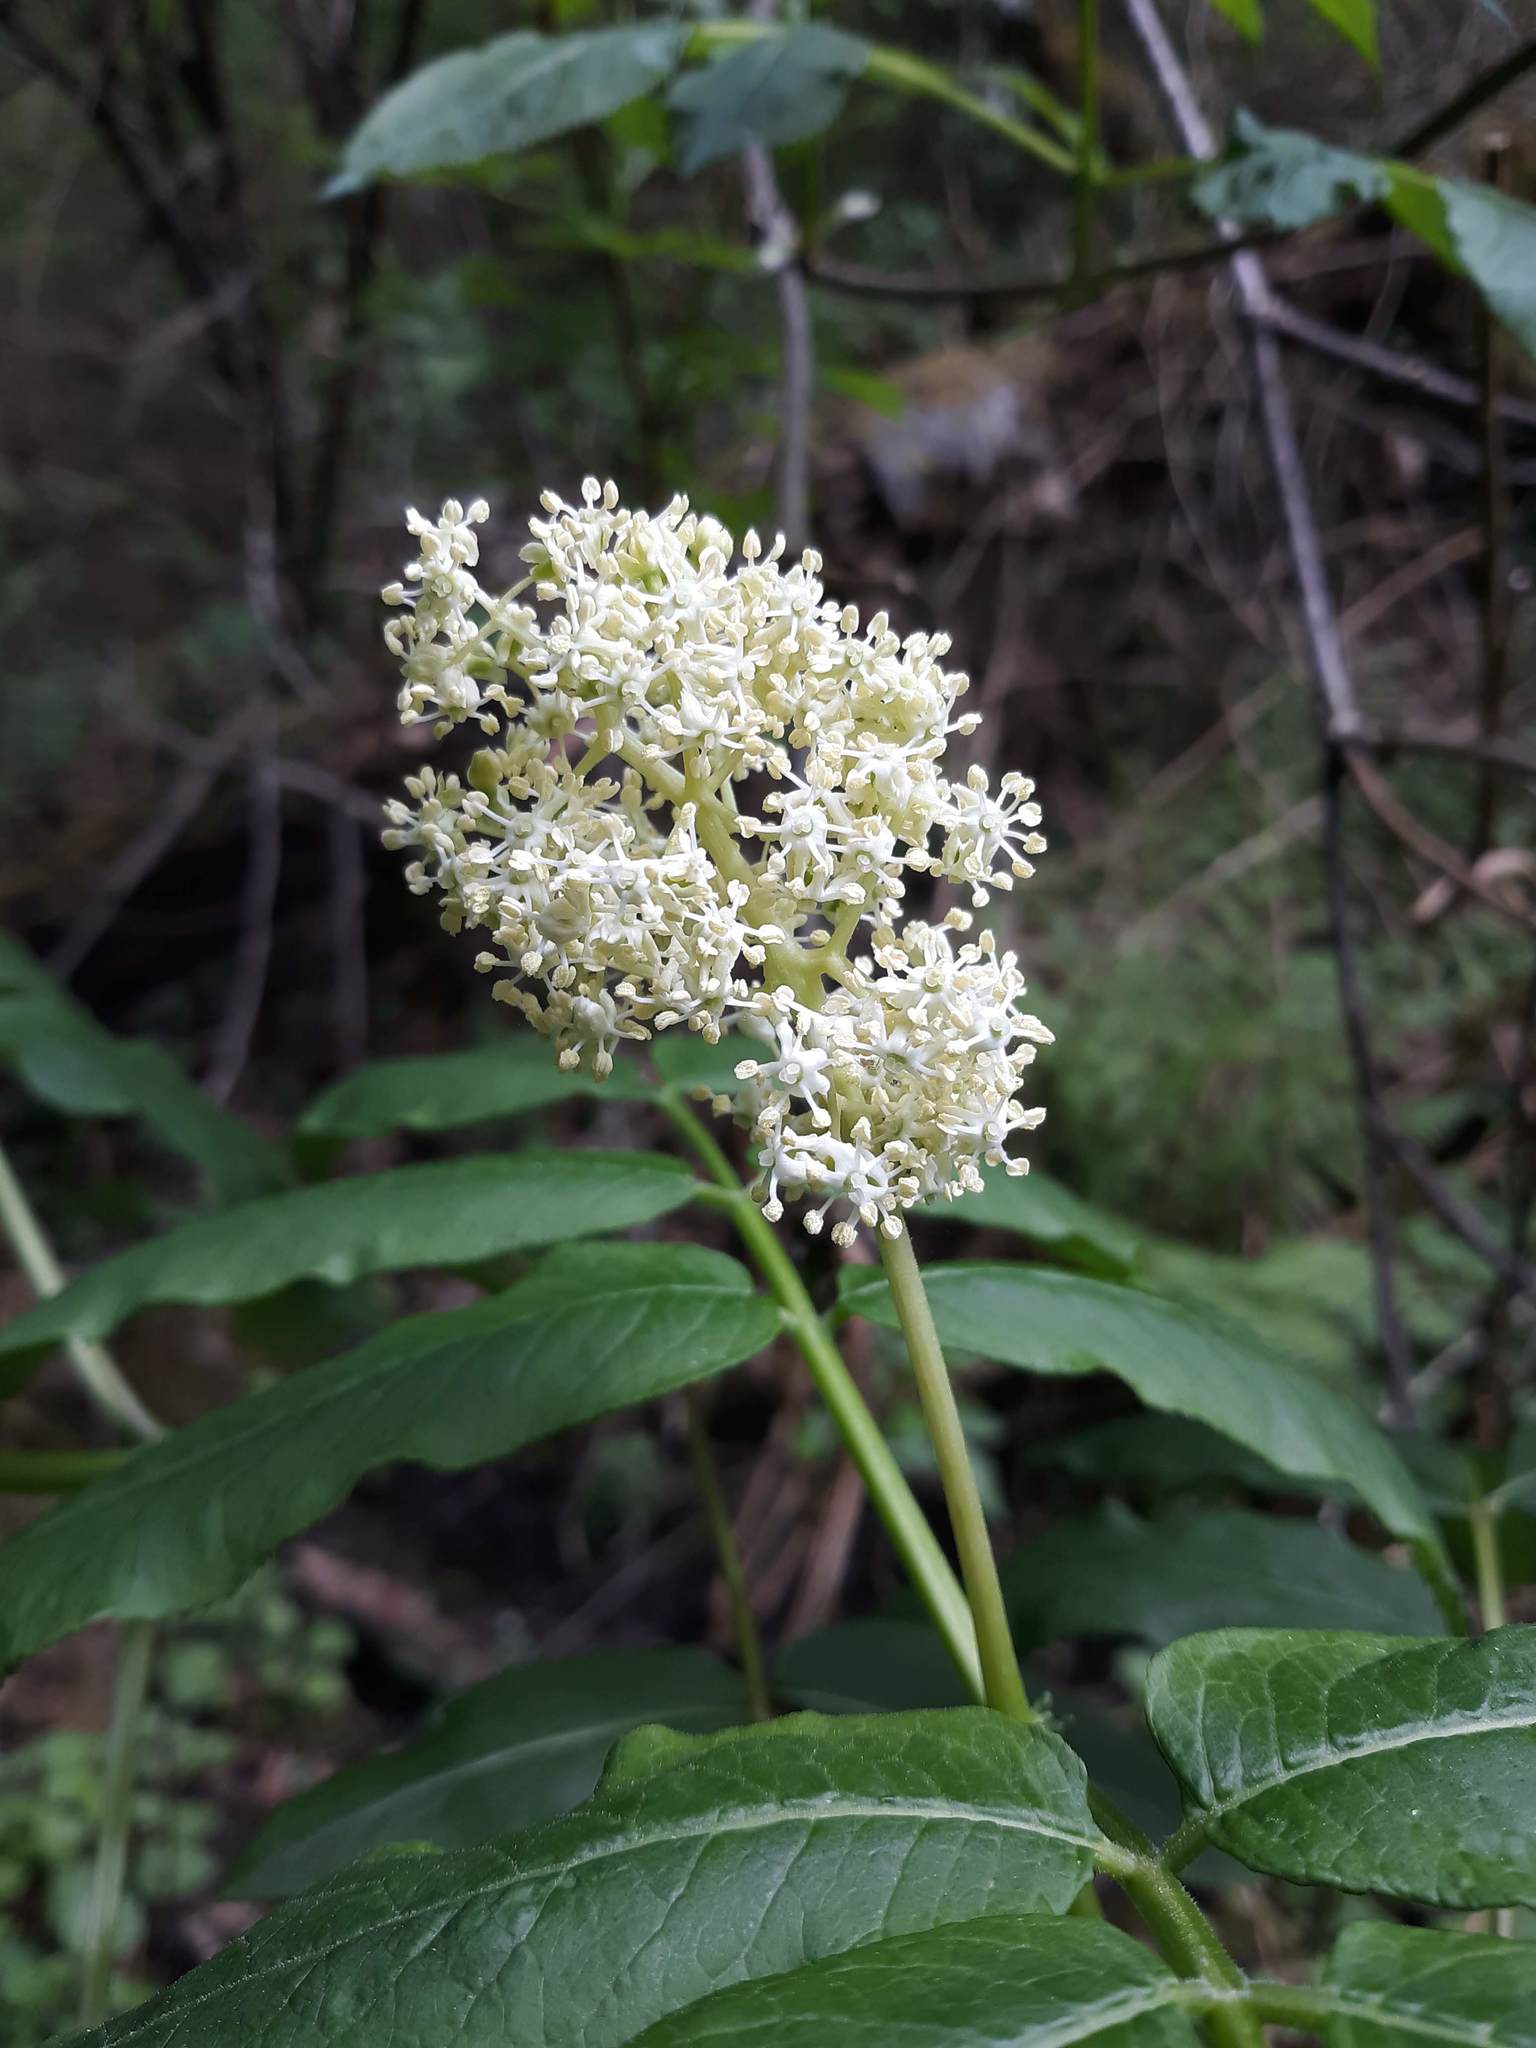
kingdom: Plantae
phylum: Tracheophyta
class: Magnoliopsida
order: Dipsacales
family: Viburnaceae
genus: Sambucus
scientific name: Sambucus racemosa
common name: Red-berried elder
